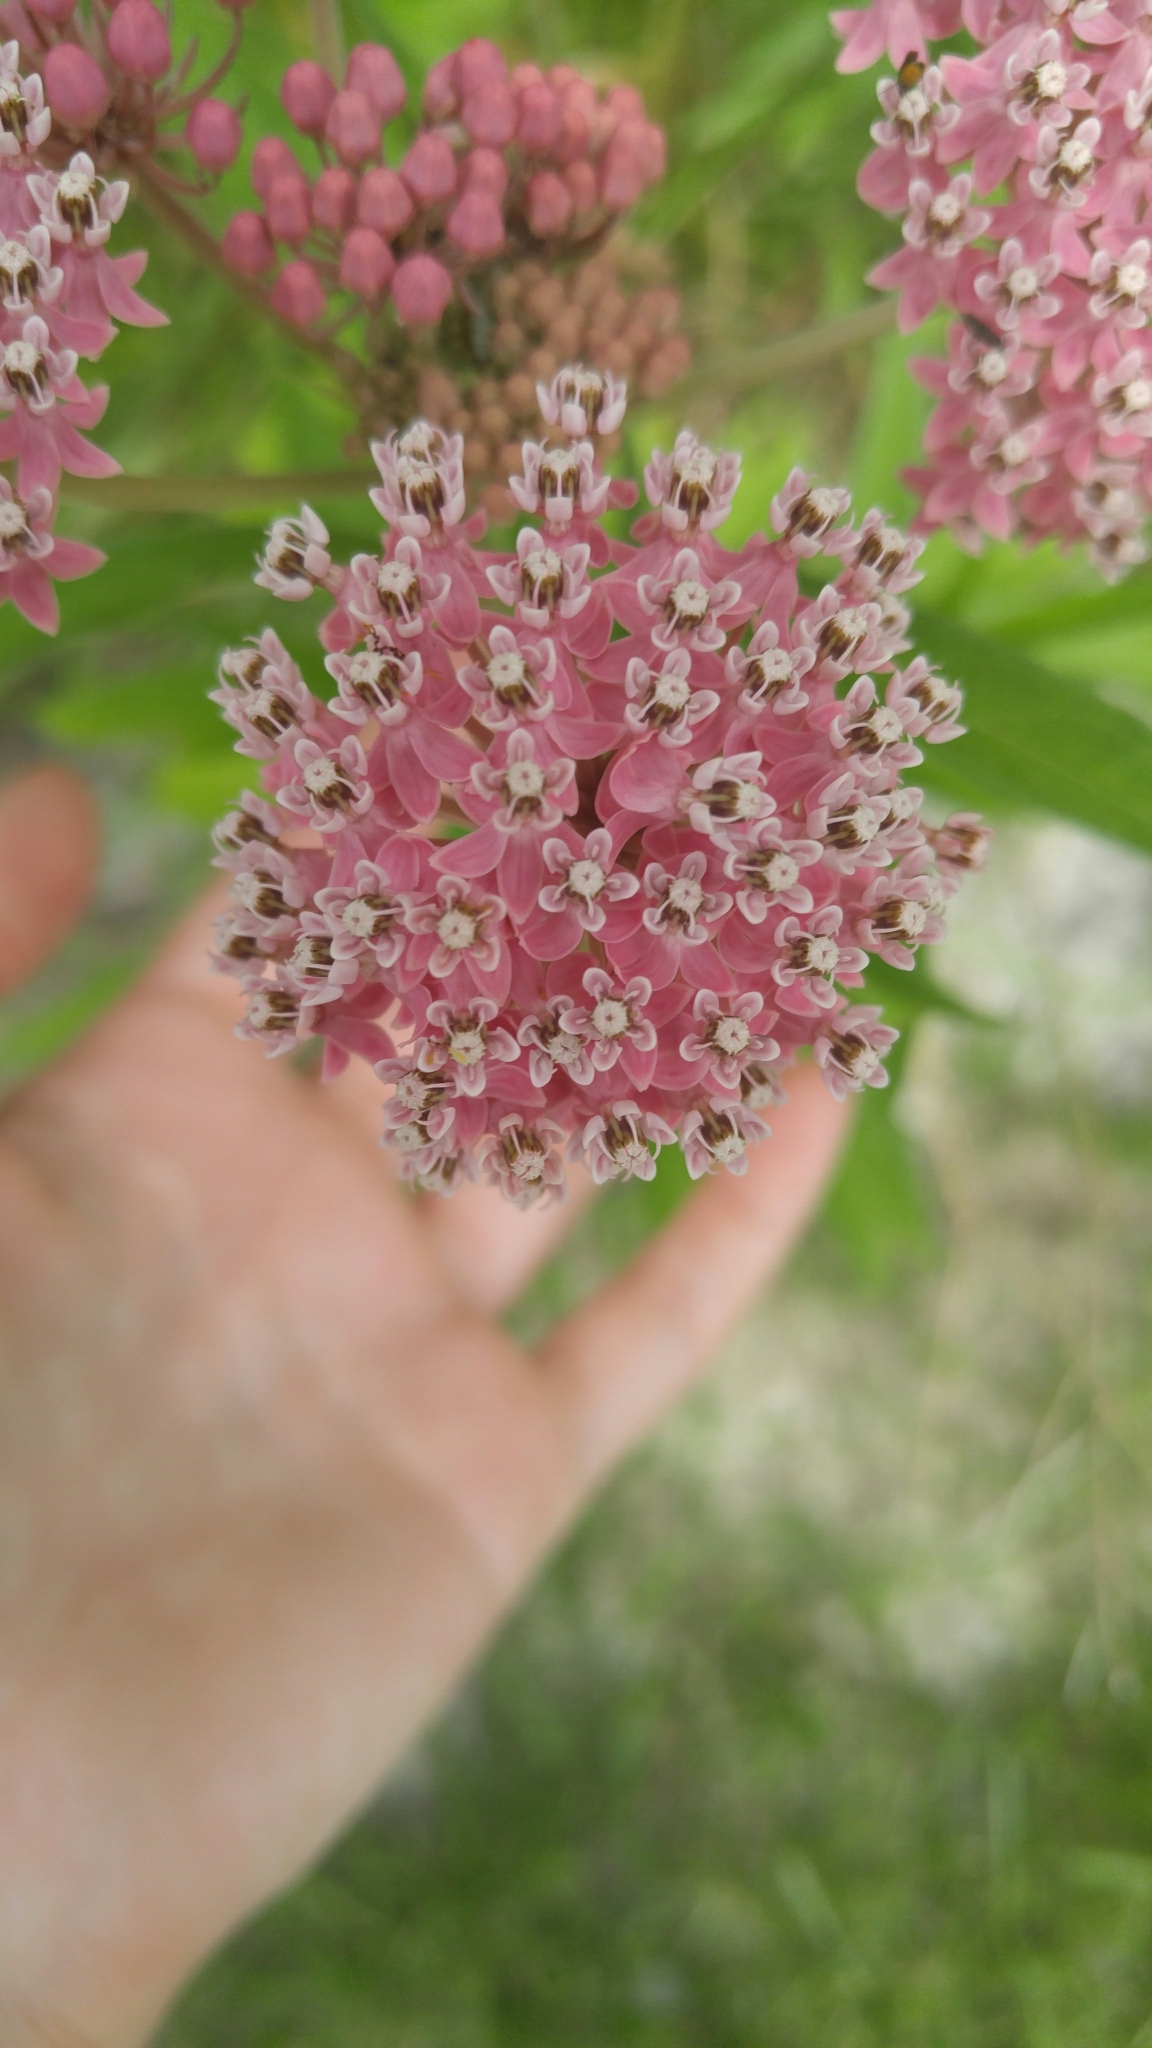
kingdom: Plantae
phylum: Tracheophyta
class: Magnoliopsida
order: Gentianales
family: Apocynaceae
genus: Asclepias
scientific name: Asclepias incarnata
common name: Swamp milkweed
